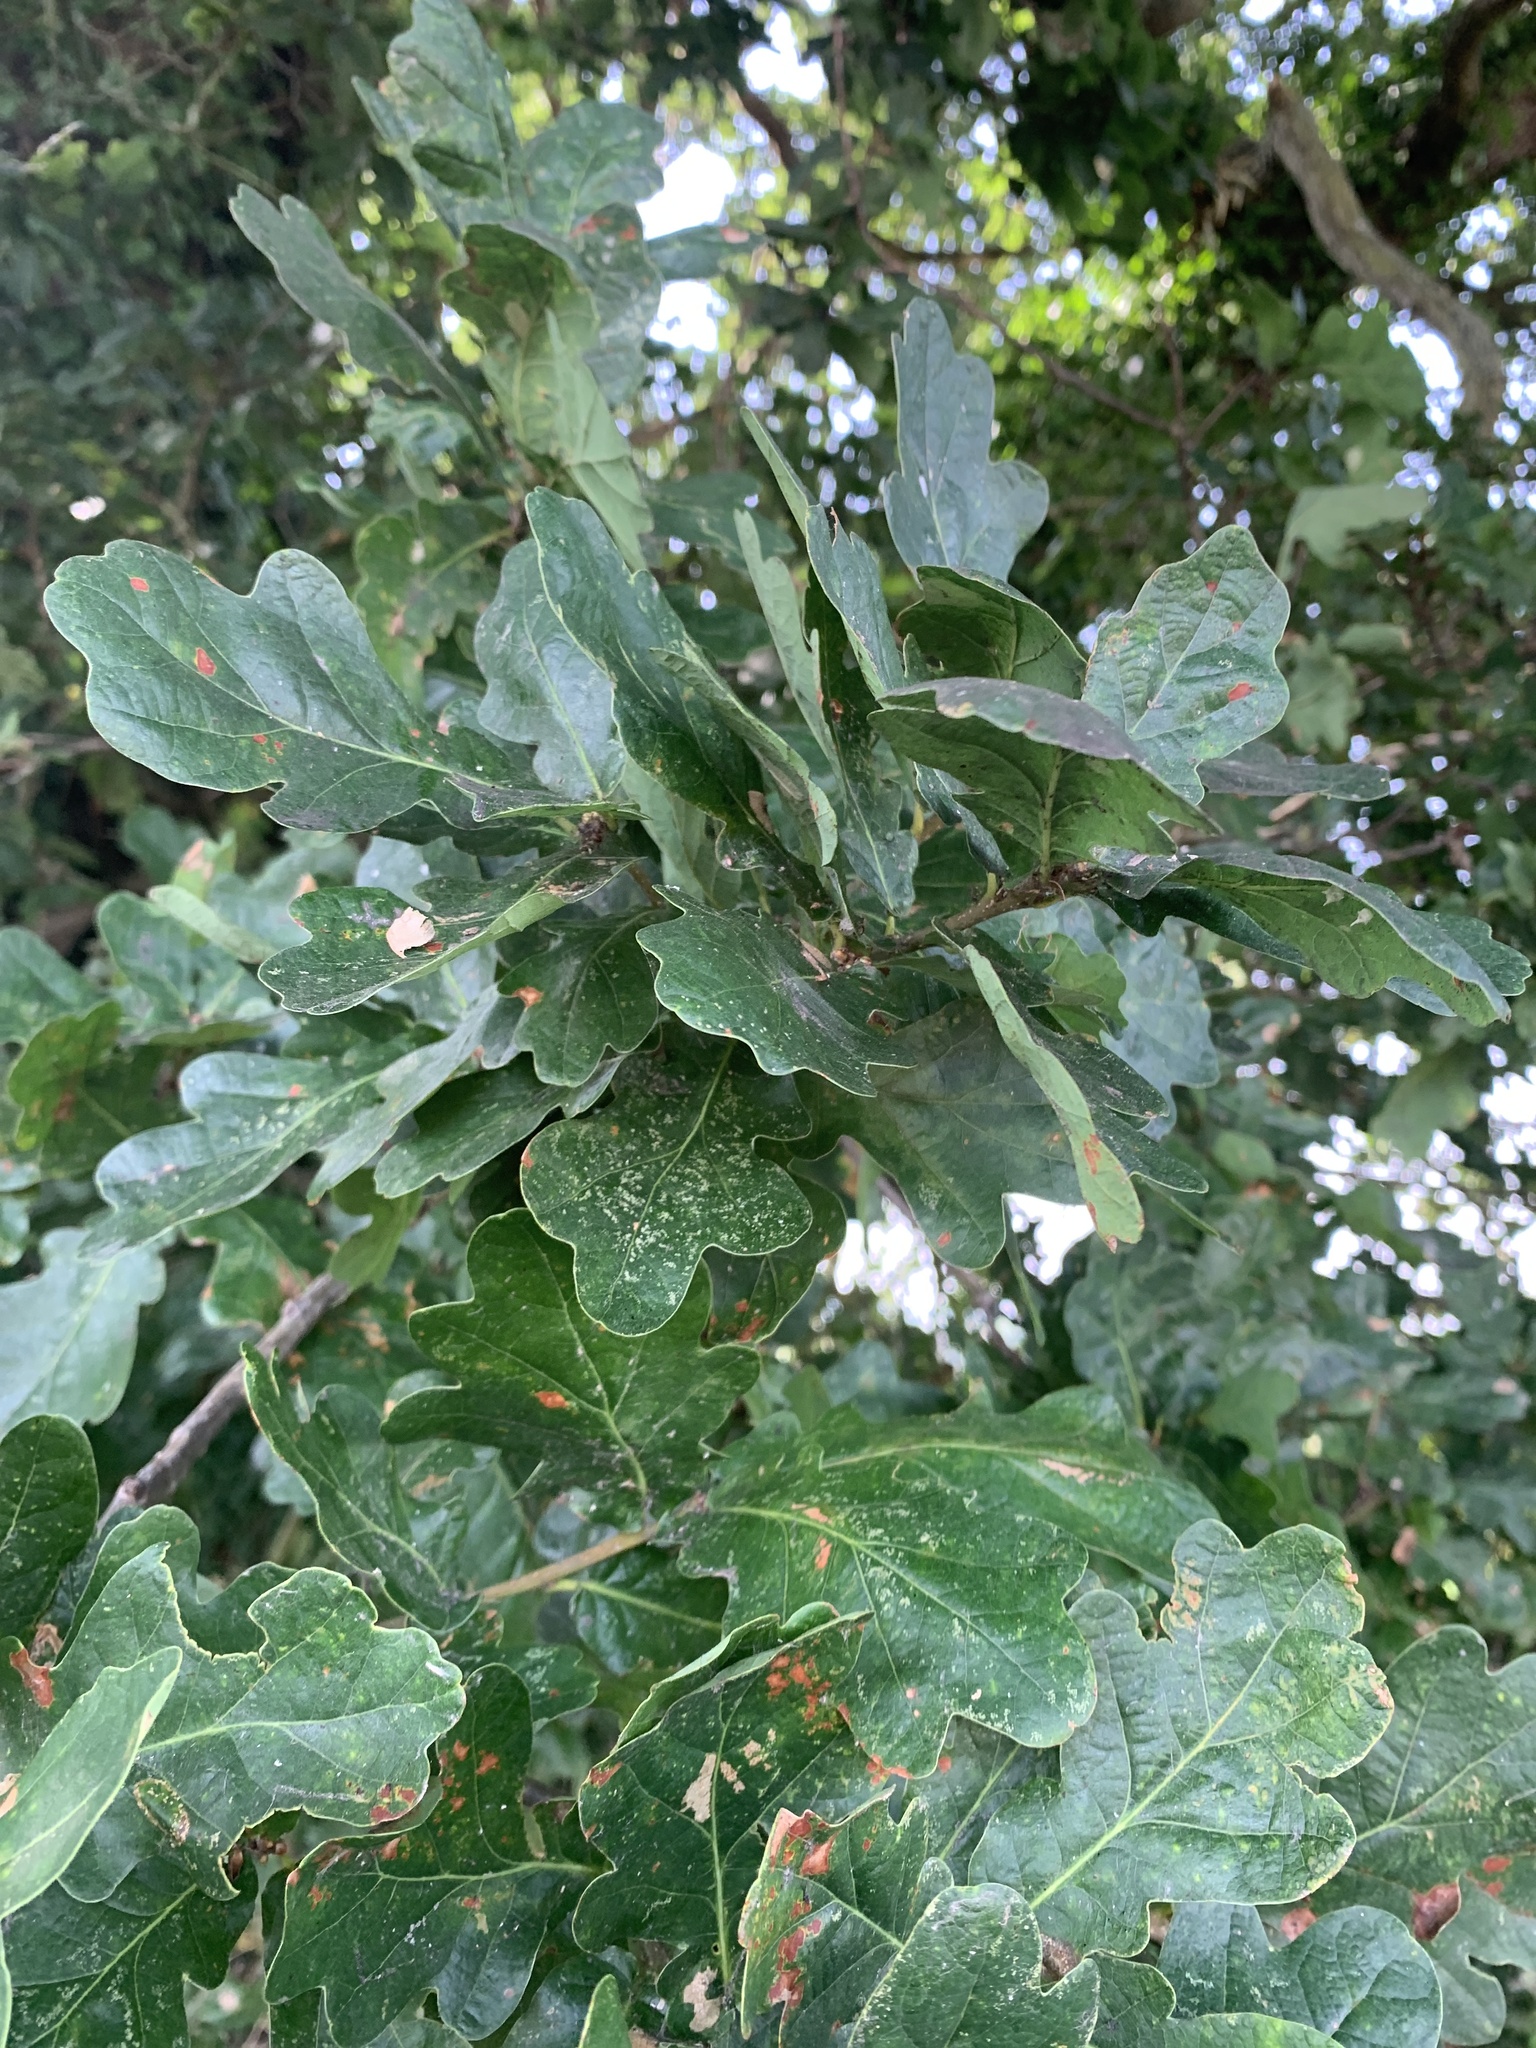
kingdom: Plantae
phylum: Tracheophyta
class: Magnoliopsida
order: Fagales
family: Fagaceae
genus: Quercus
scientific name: Quercus robur
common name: Pedunculate oak
